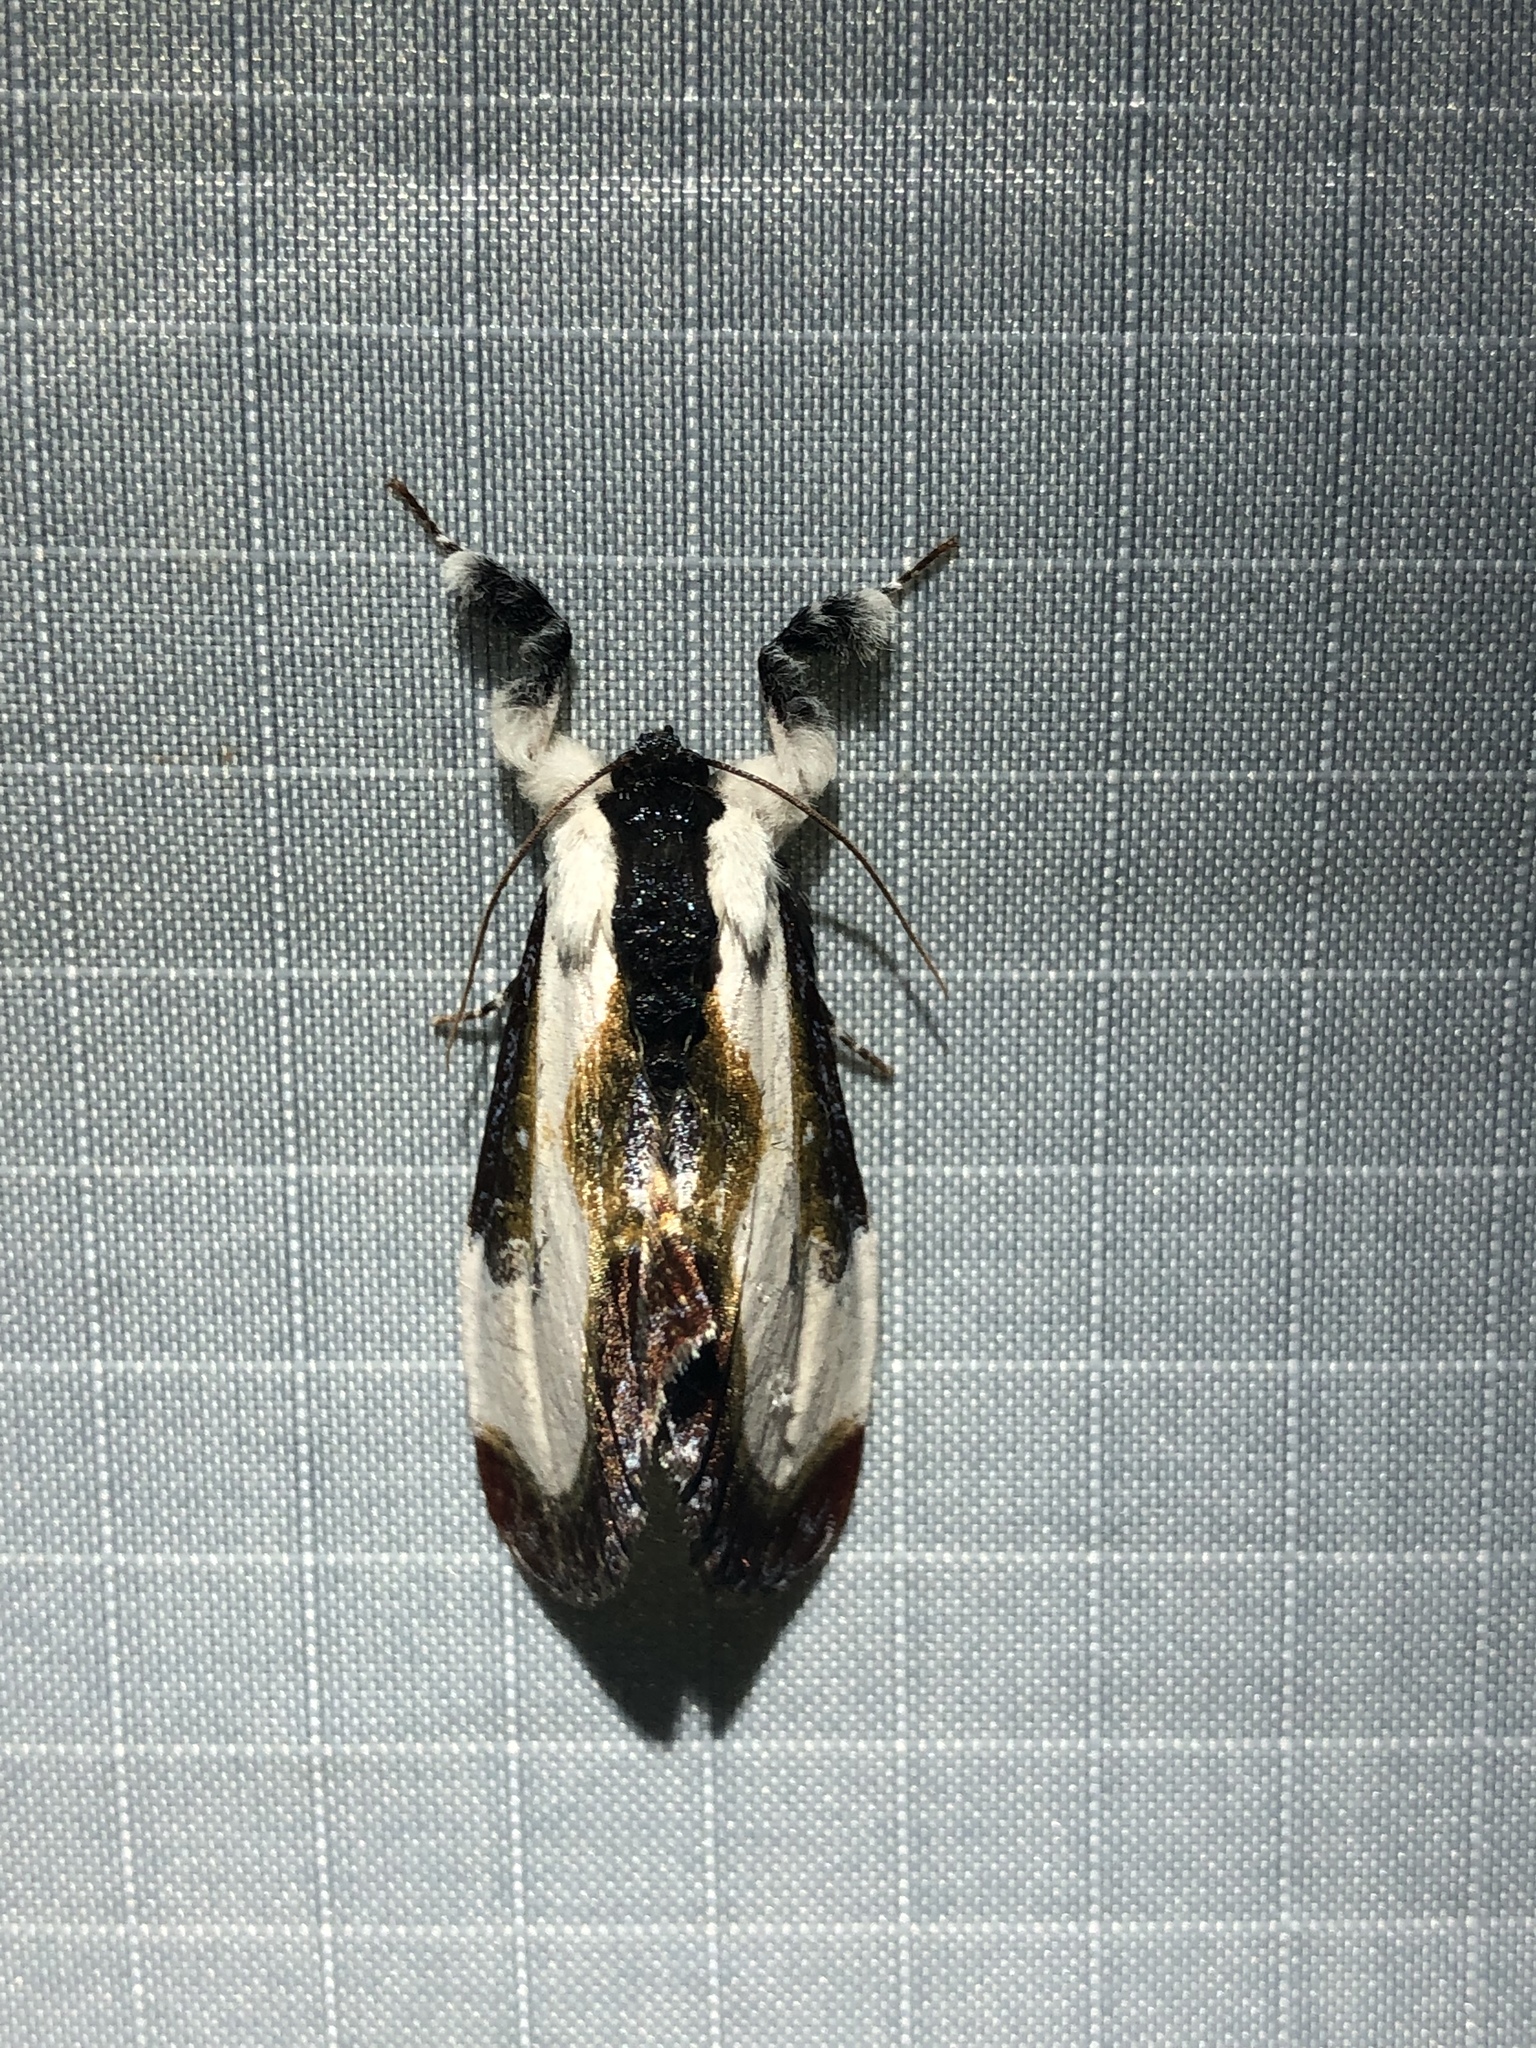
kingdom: Animalia
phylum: Arthropoda
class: Insecta
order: Lepidoptera
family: Noctuidae
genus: Eudryas
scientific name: Eudryas grata
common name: Beautiful wood-nymph
